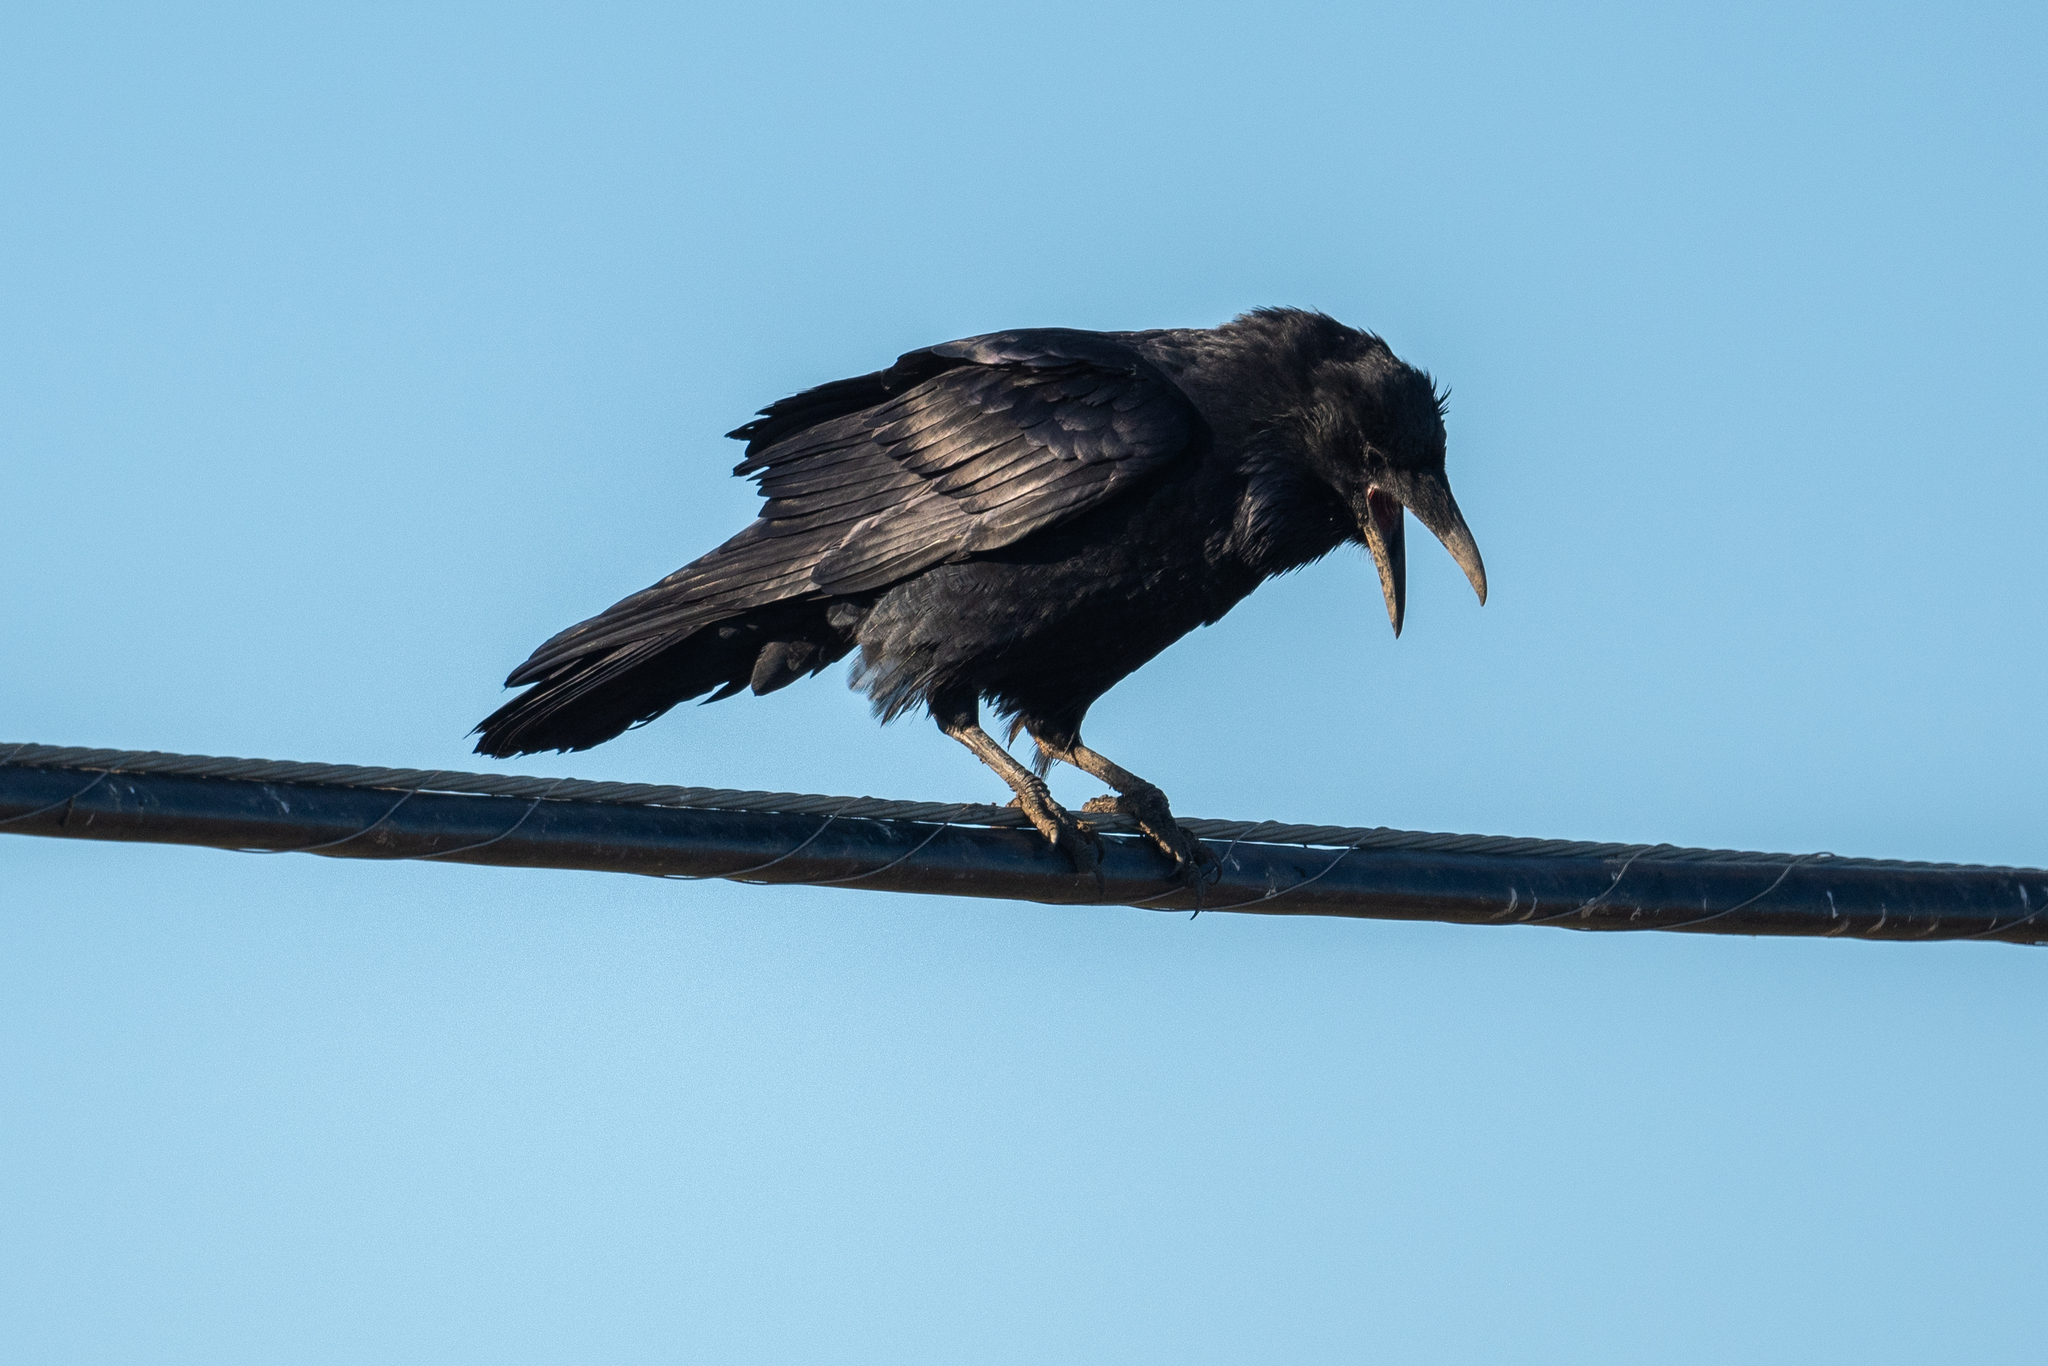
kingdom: Animalia
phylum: Chordata
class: Aves
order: Passeriformes
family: Corvidae
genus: Corvus
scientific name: Corvus corax
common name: Common raven
